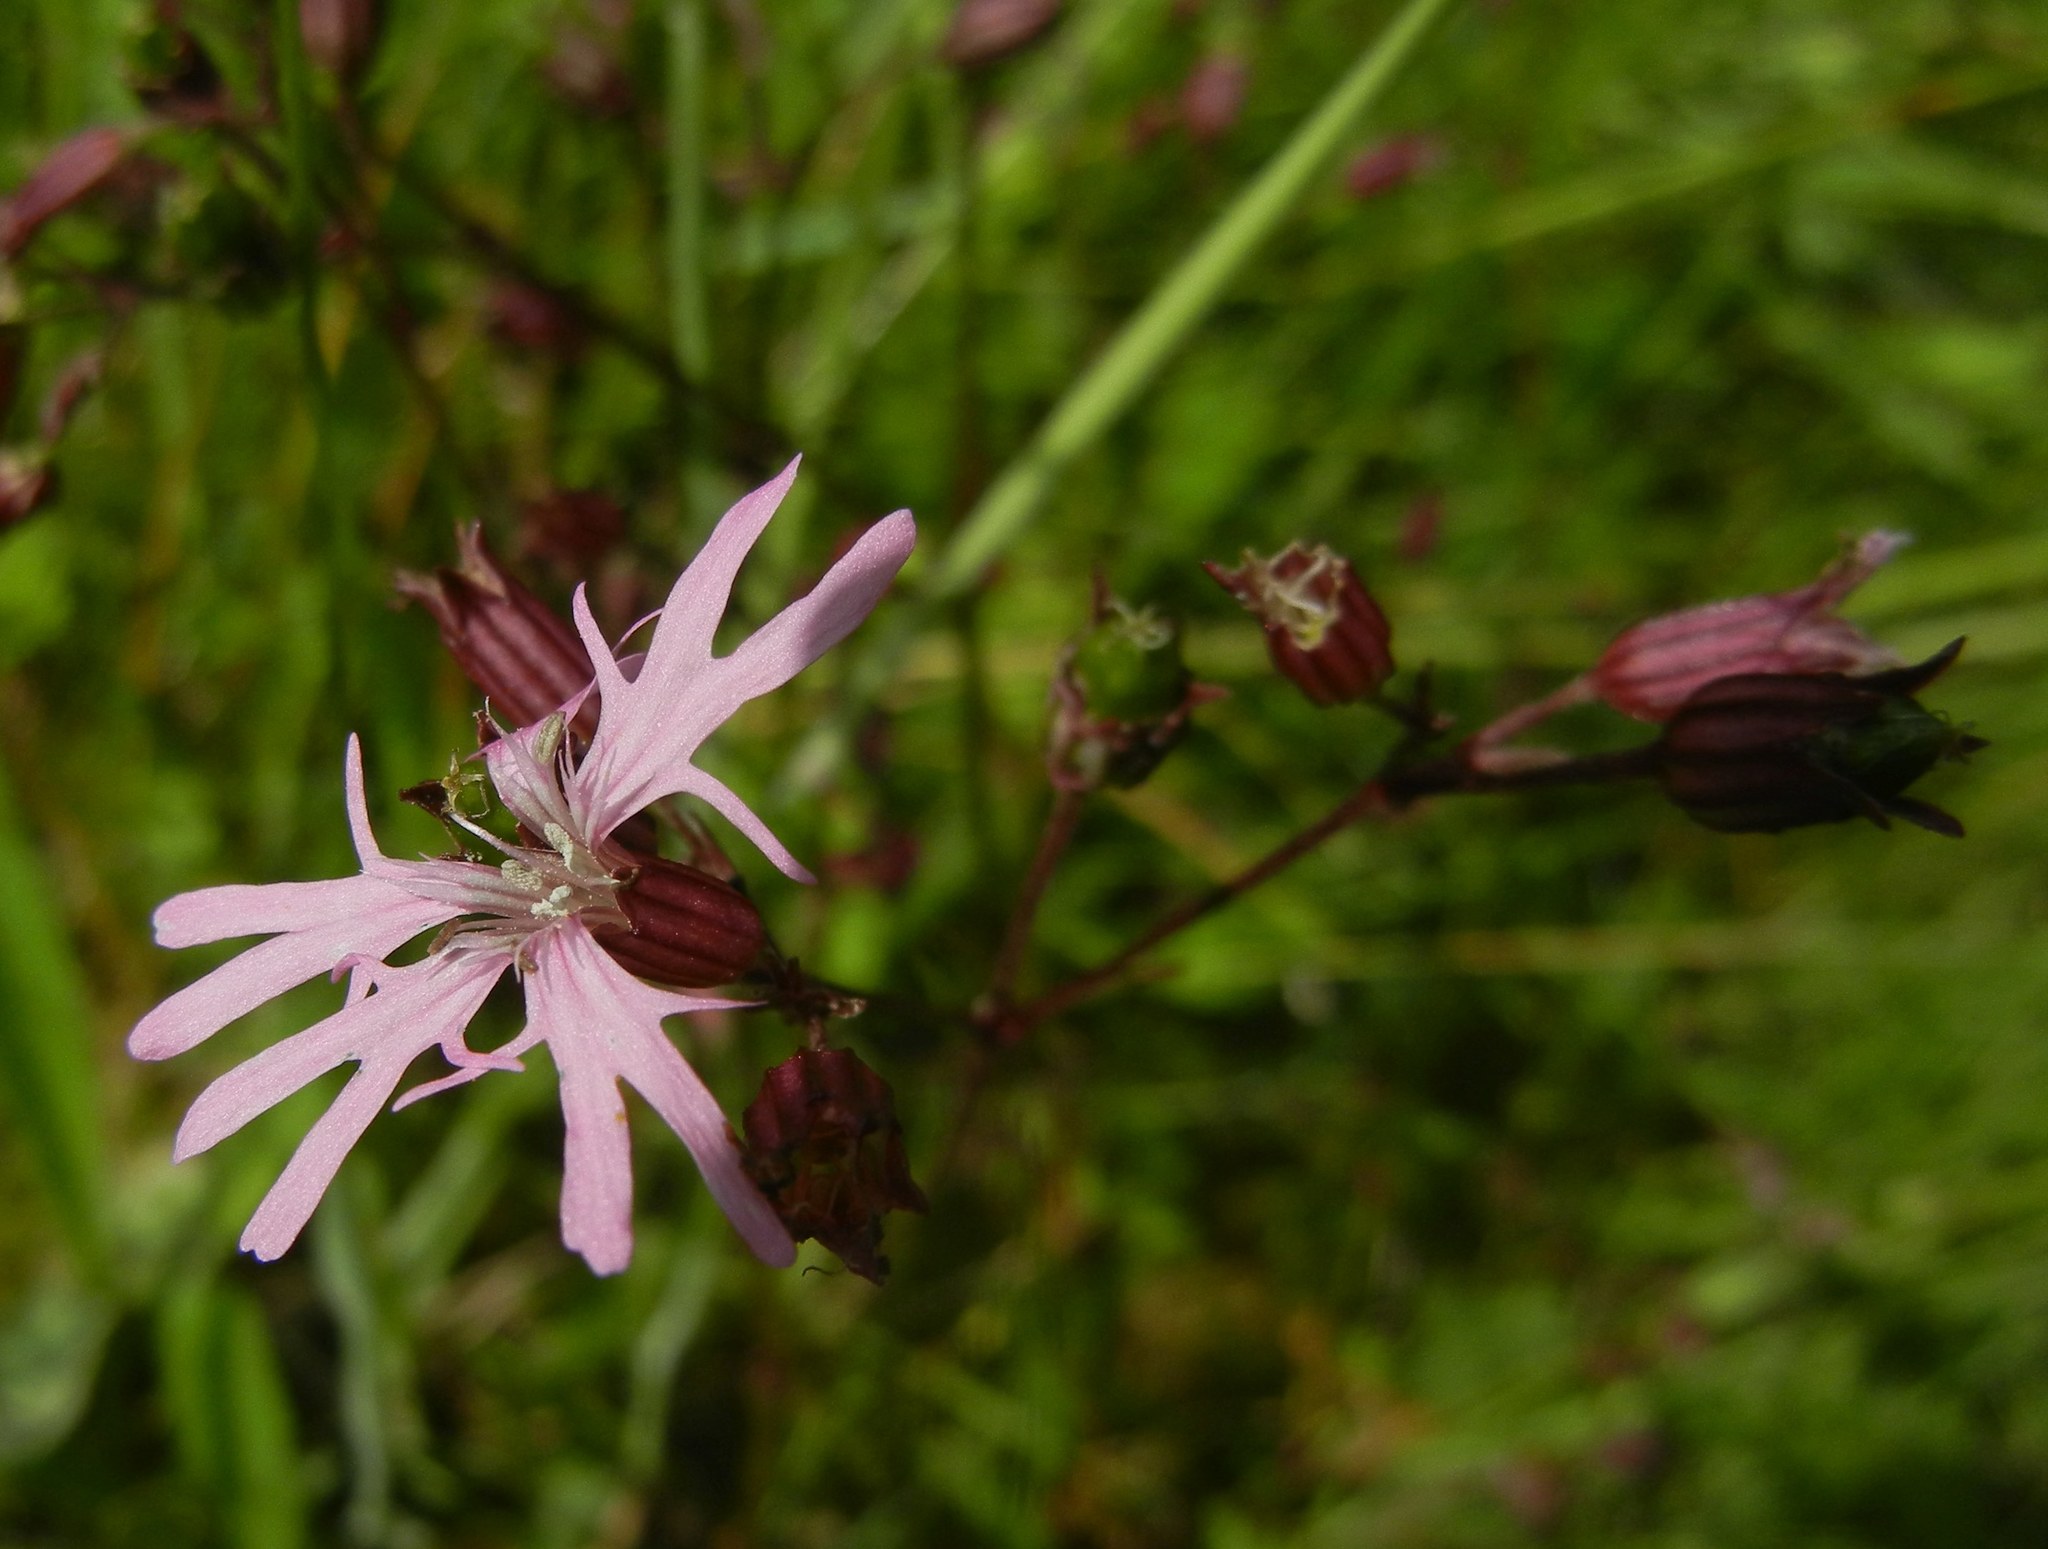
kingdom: Plantae
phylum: Tracheophyta
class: Magnoliopsida
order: Caryophyllales
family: Caryophyllaceae
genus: Silene
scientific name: Silene flos-cuculi
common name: Ragged-robin
